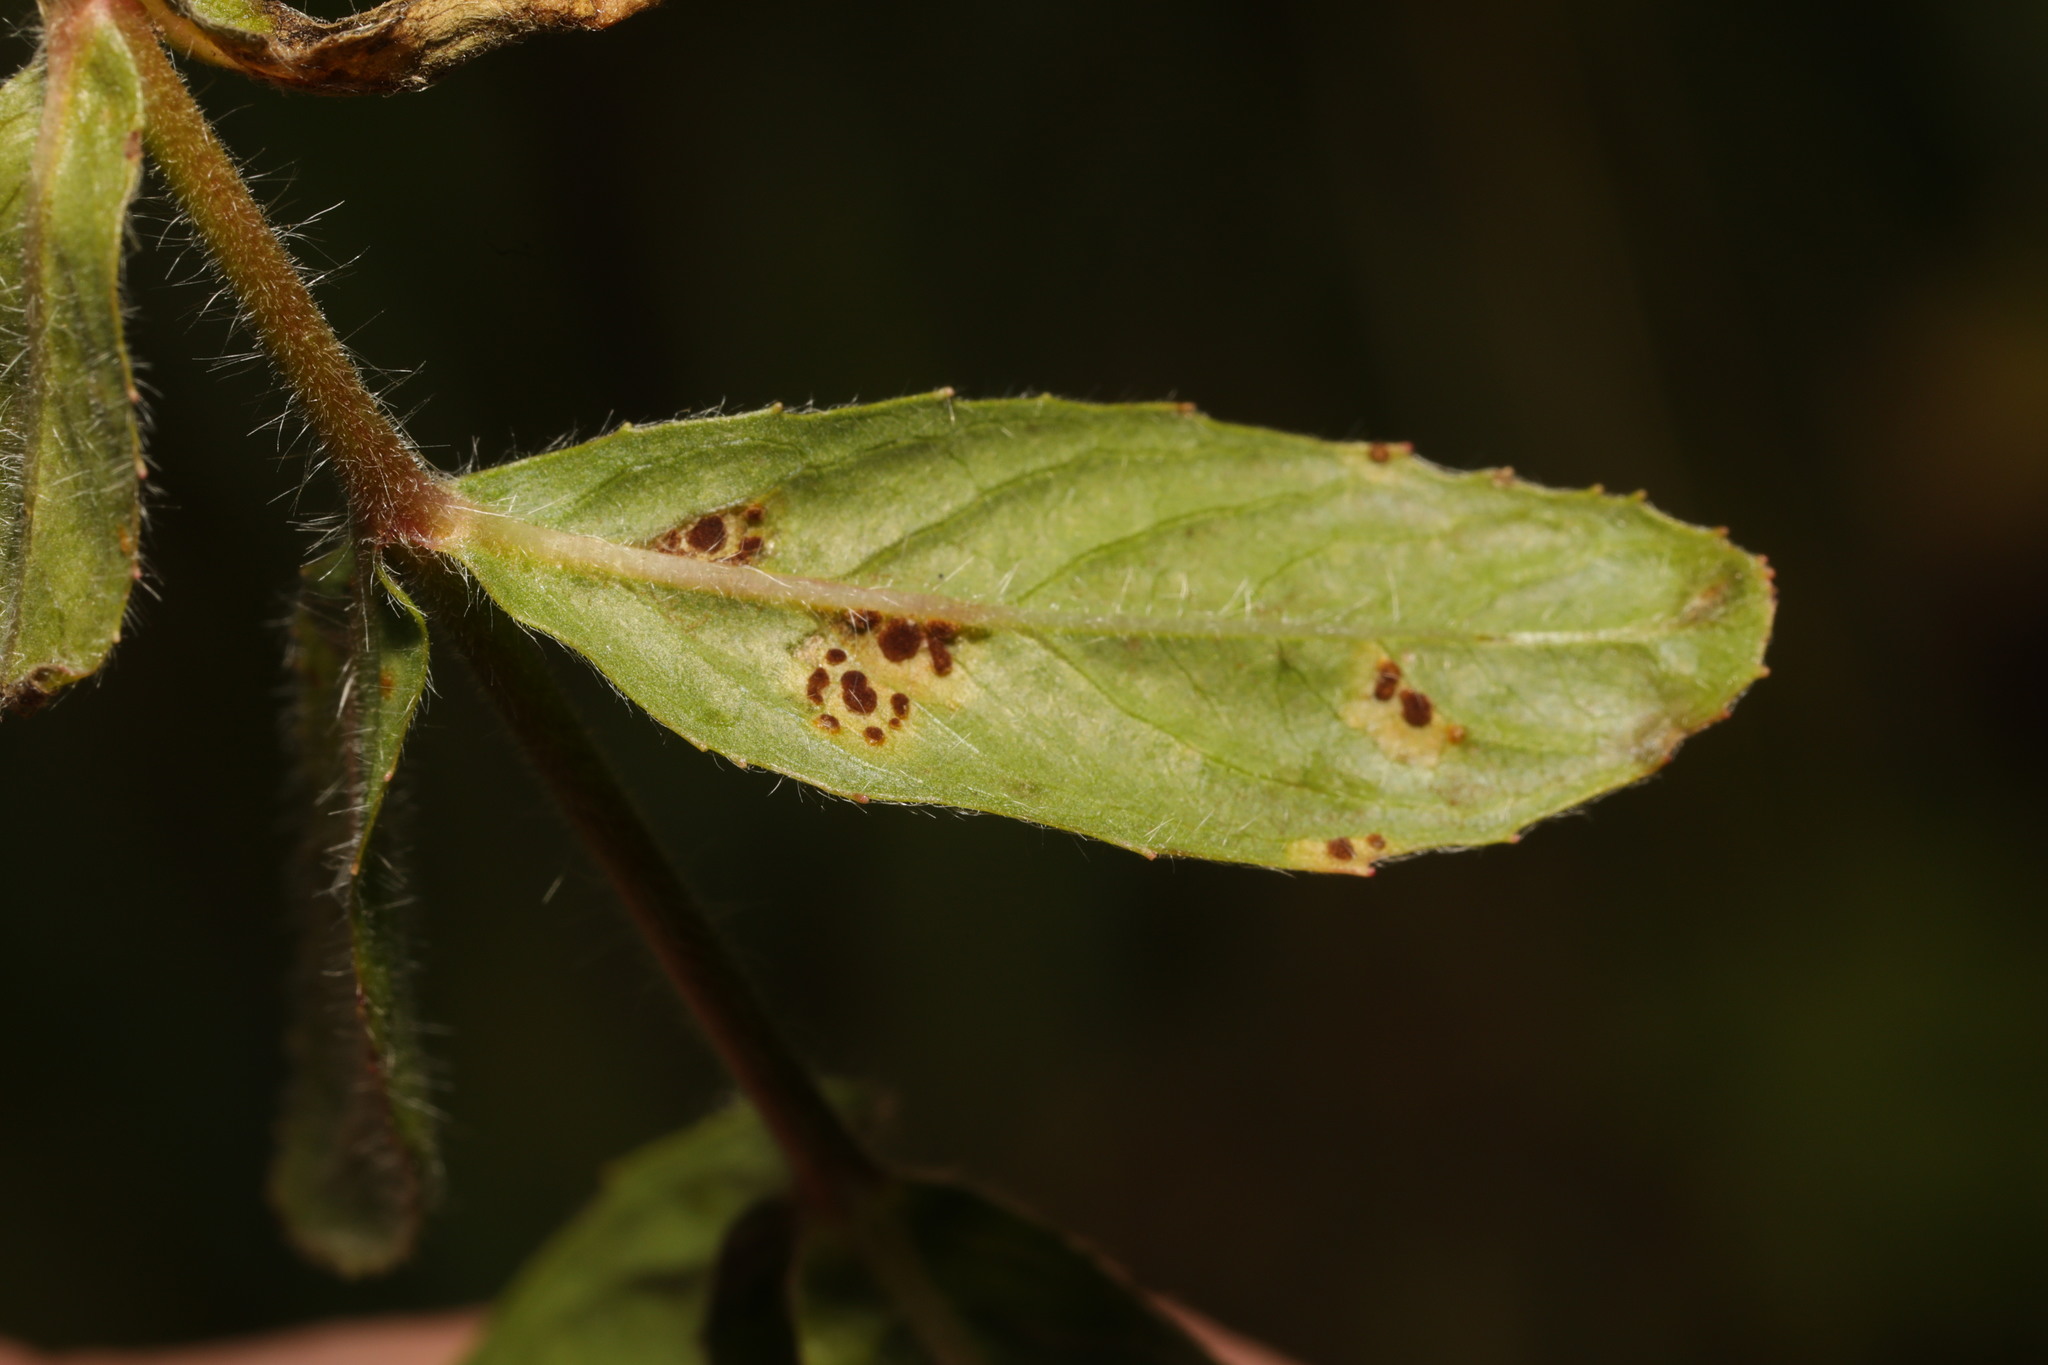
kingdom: Fungi
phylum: Basidiomycota
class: Pucciniomycetes
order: Pucciniales
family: Pucciniaceae
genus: Puccinia
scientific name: Puccinia pulverulenta
